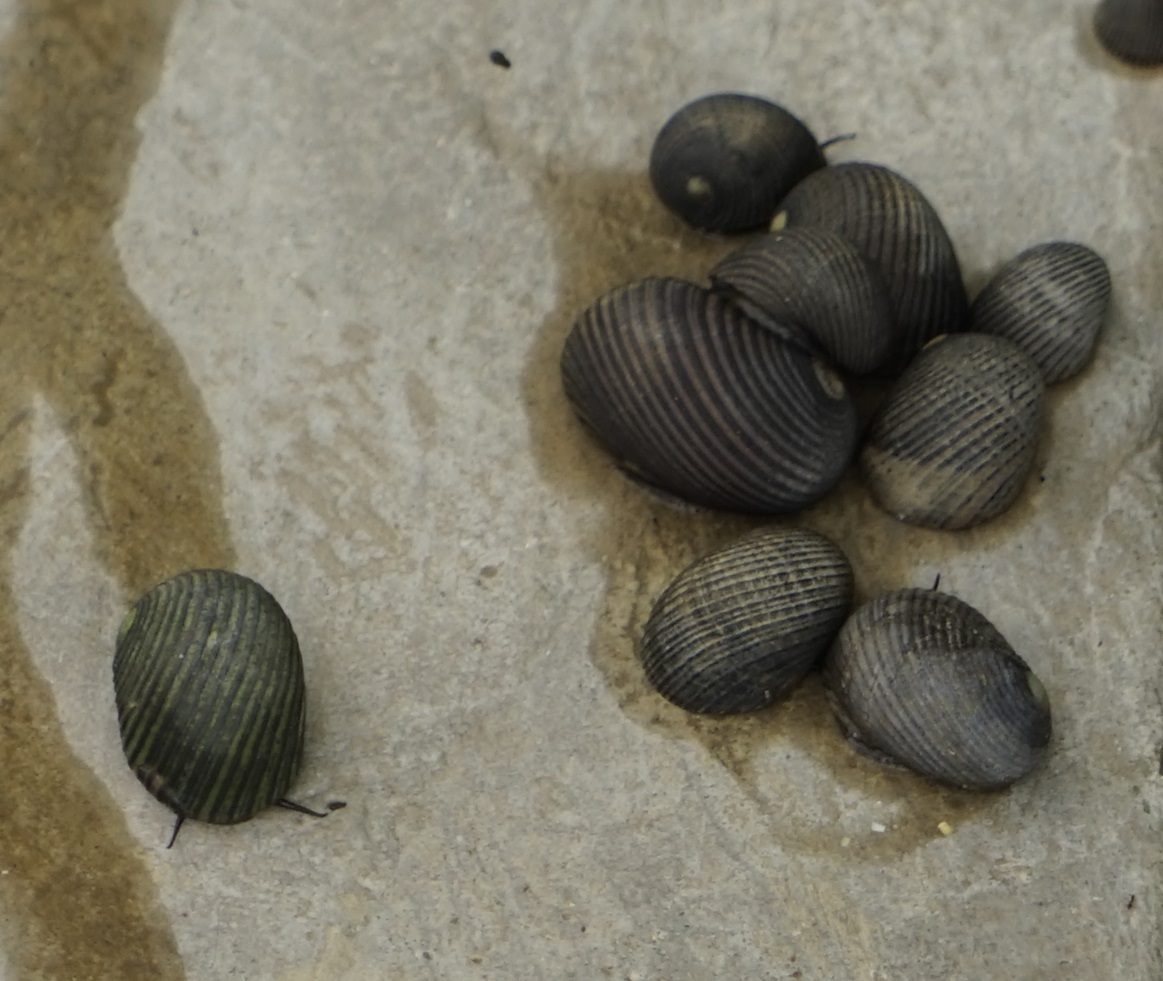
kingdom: Animalia
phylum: Mollusca
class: Gastropoda
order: Cycloneritida
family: Neritidae
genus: Nerita
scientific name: Nerita balteata
